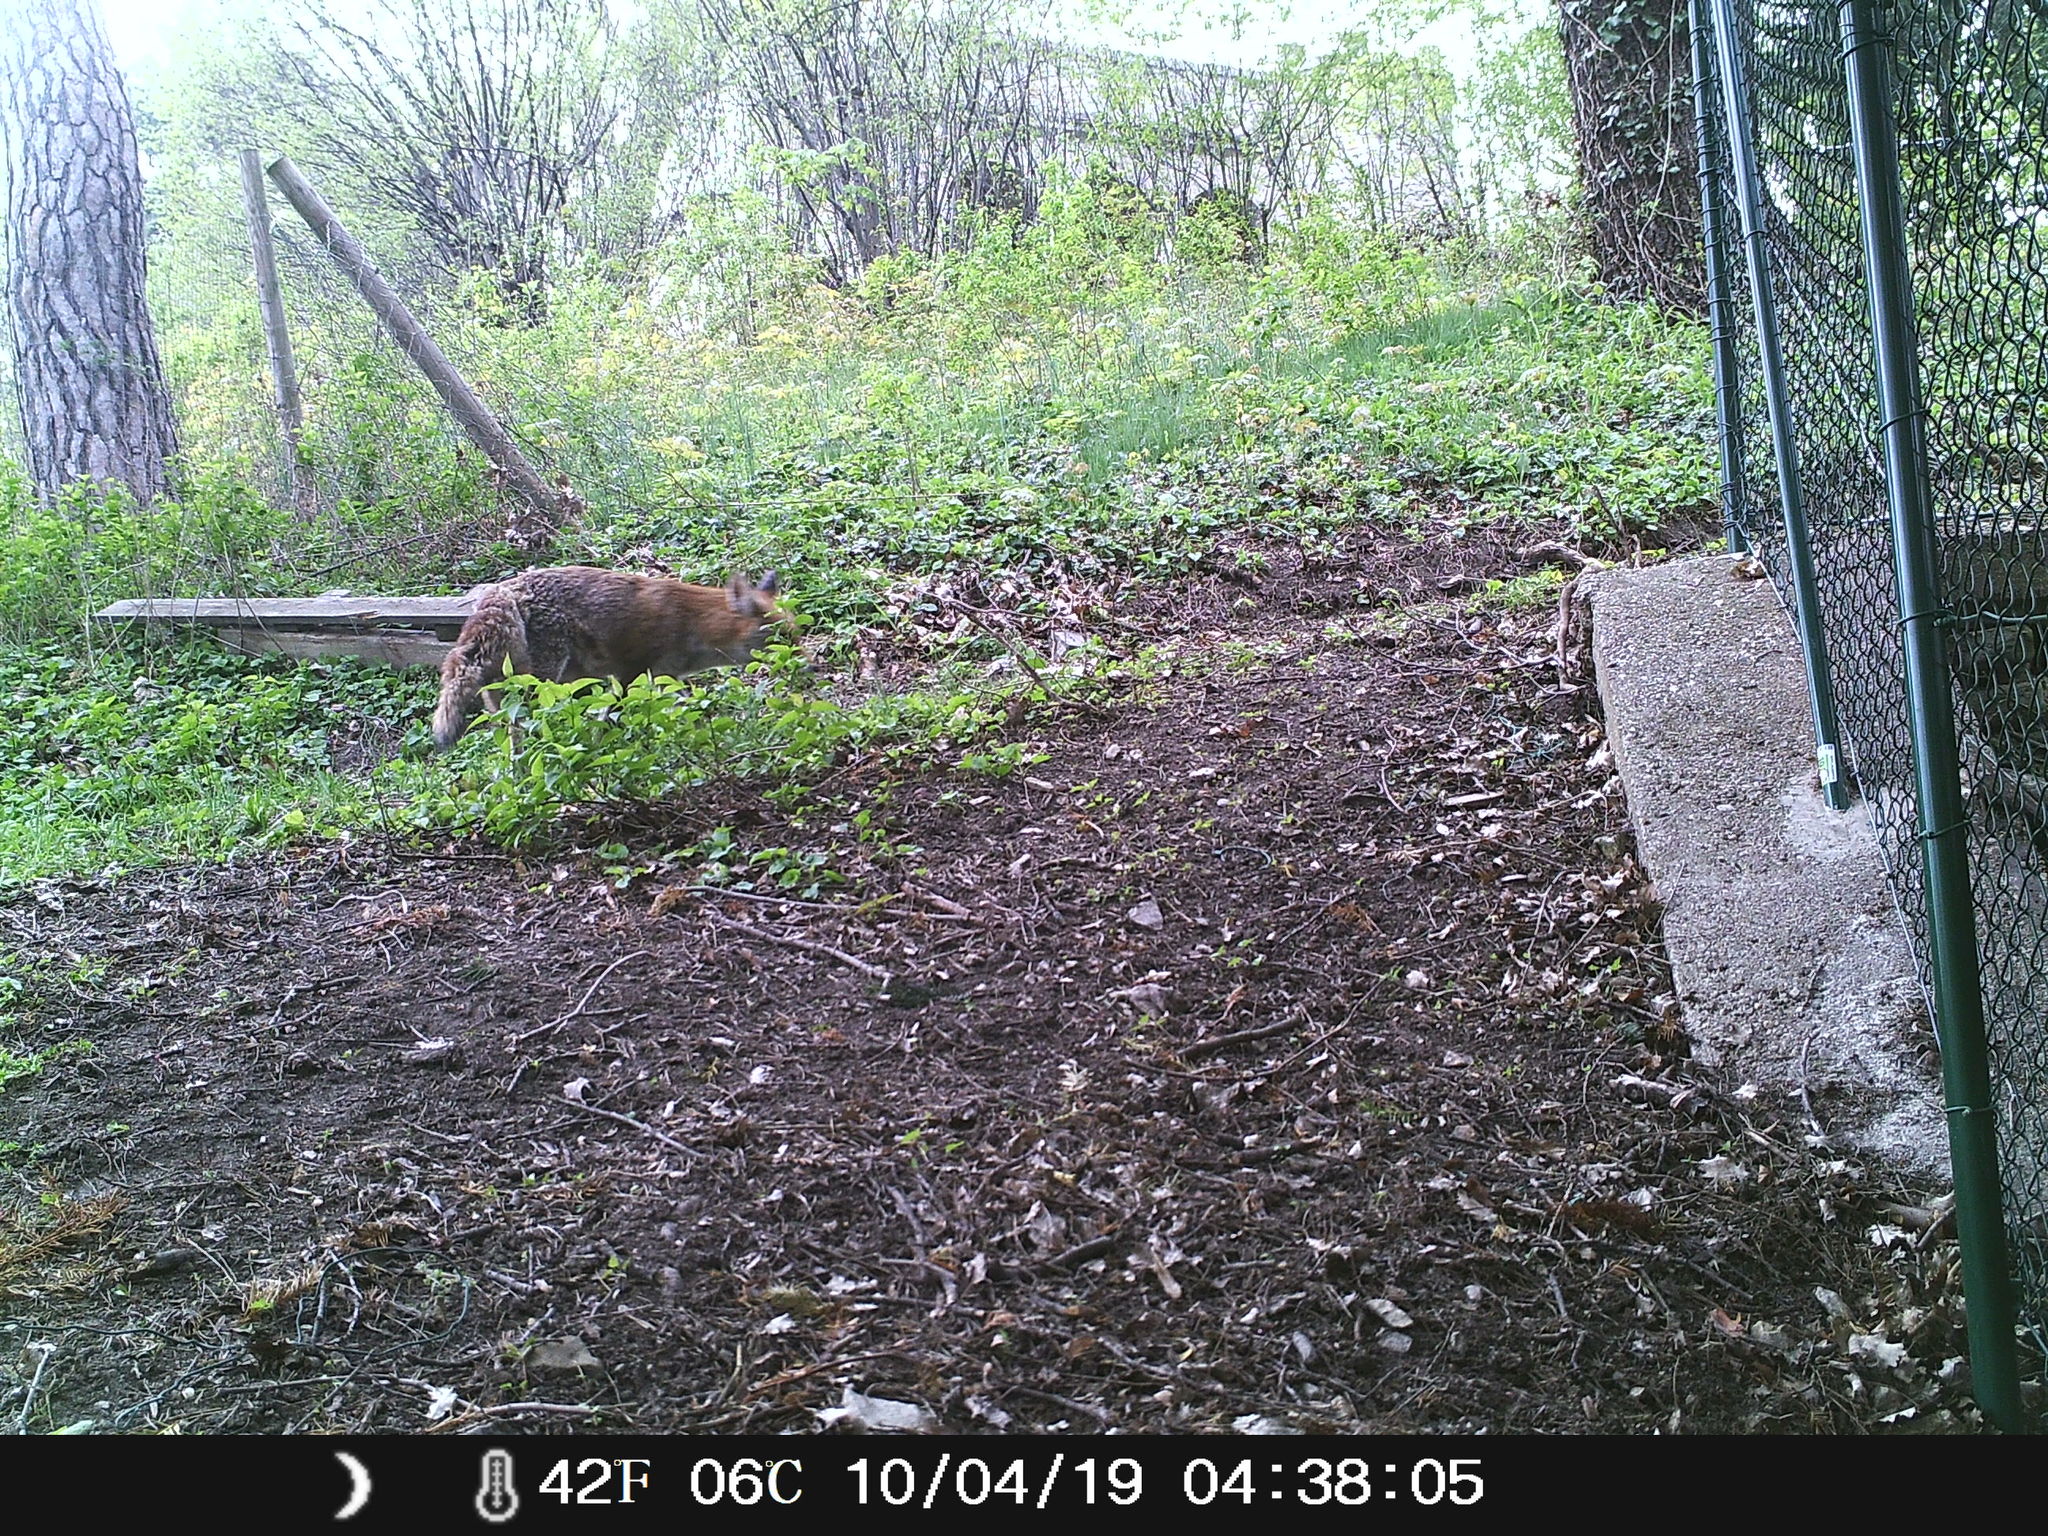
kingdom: Animalia
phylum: Chordata
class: Mammalia
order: Carnivora
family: Canidae
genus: Vulpes
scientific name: Vulpes vulpes
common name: Red fox
